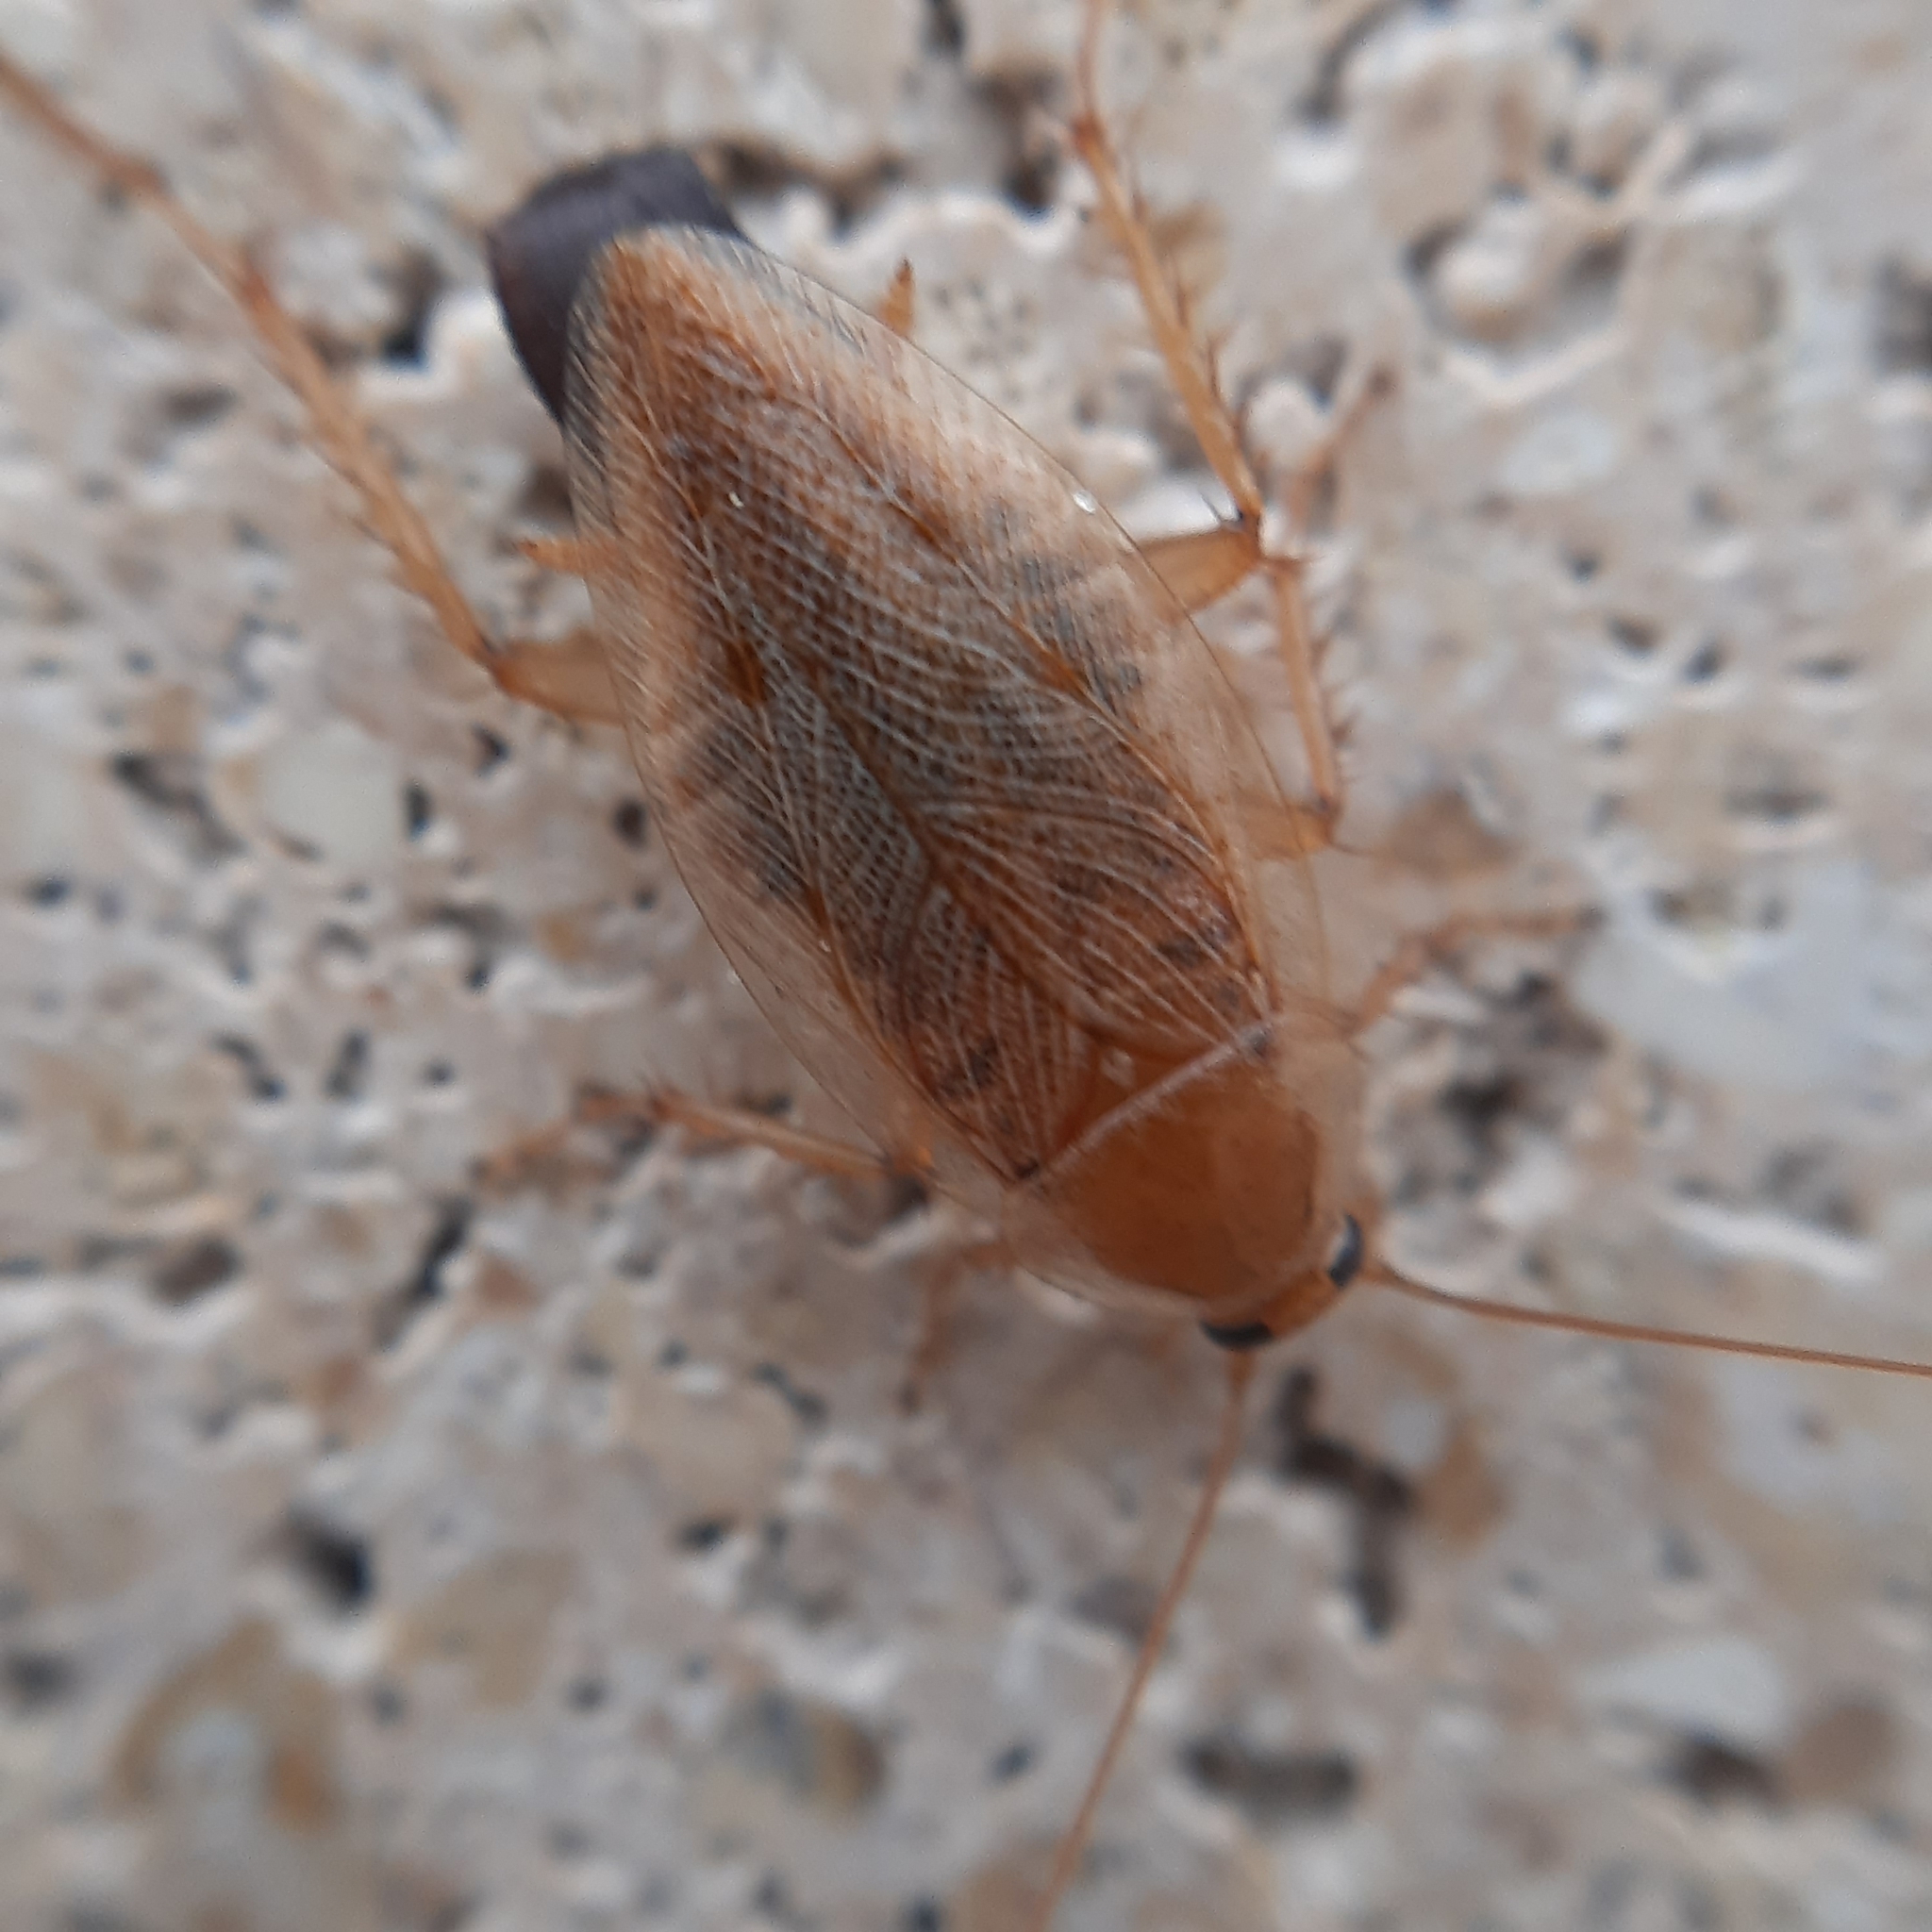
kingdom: Animalia
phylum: Arthropoda
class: Insecta
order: Blattodea
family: Ectobiidae
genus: Ectobius
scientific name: Ectobius vittiventris
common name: Garden cockroach
